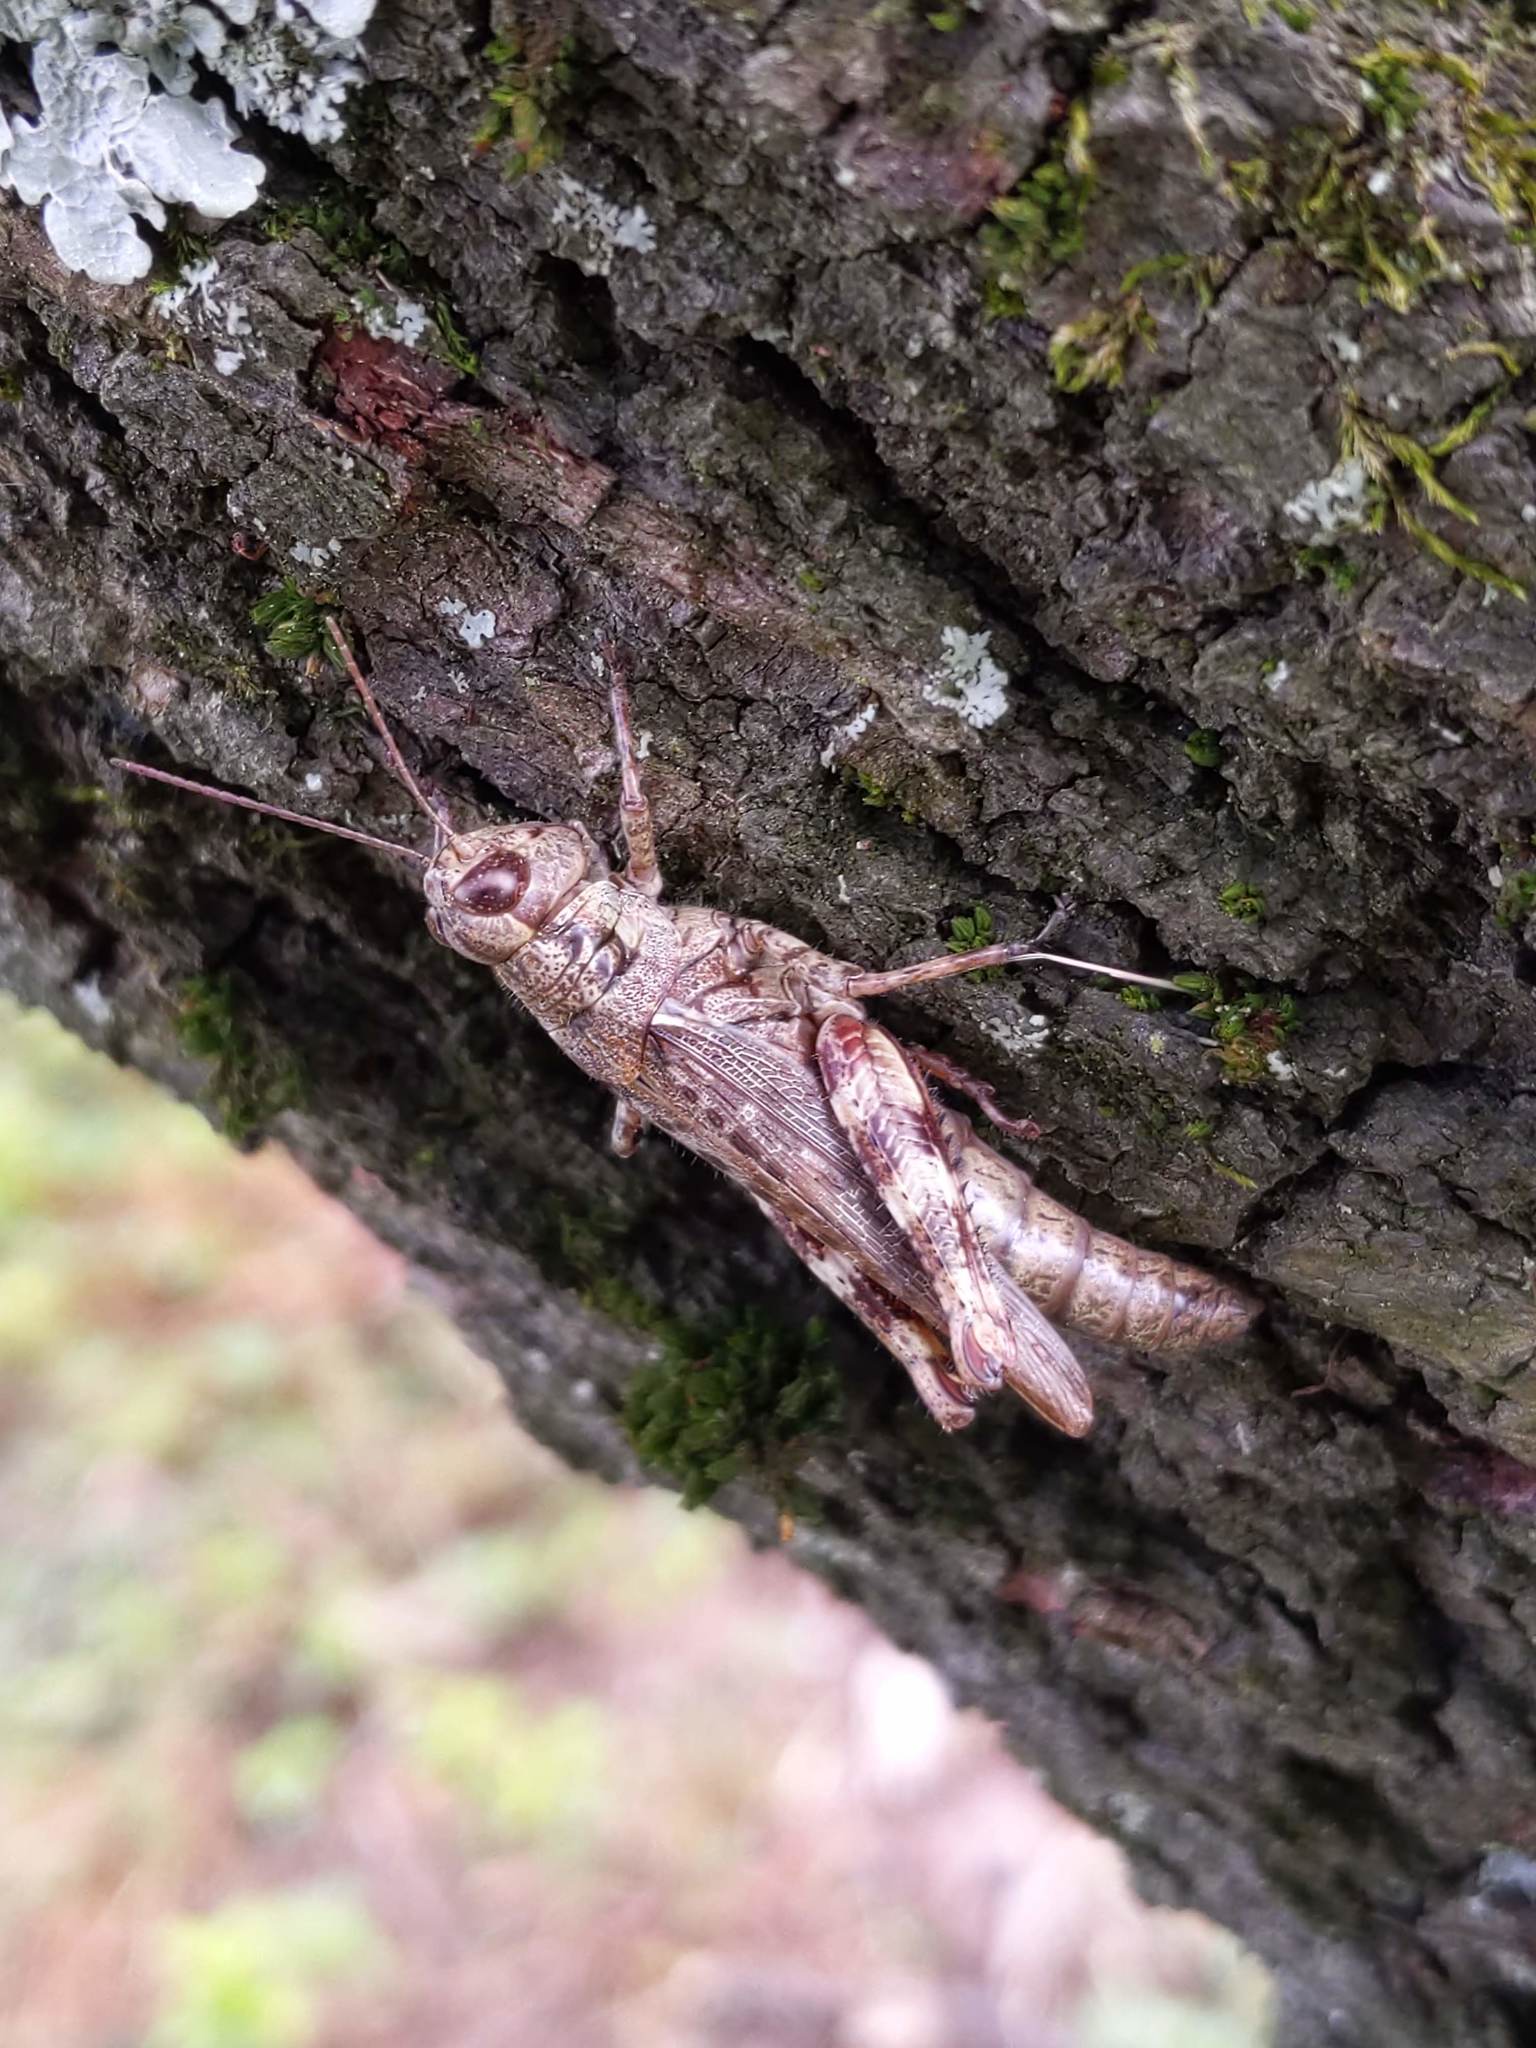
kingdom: Animalia
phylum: Arthropoda
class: Insecta
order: Orthoptera
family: Acrididae
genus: Melanoplus
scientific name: Melanoplus punctulatus
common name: Pine-tree spur-throat grasshopper
